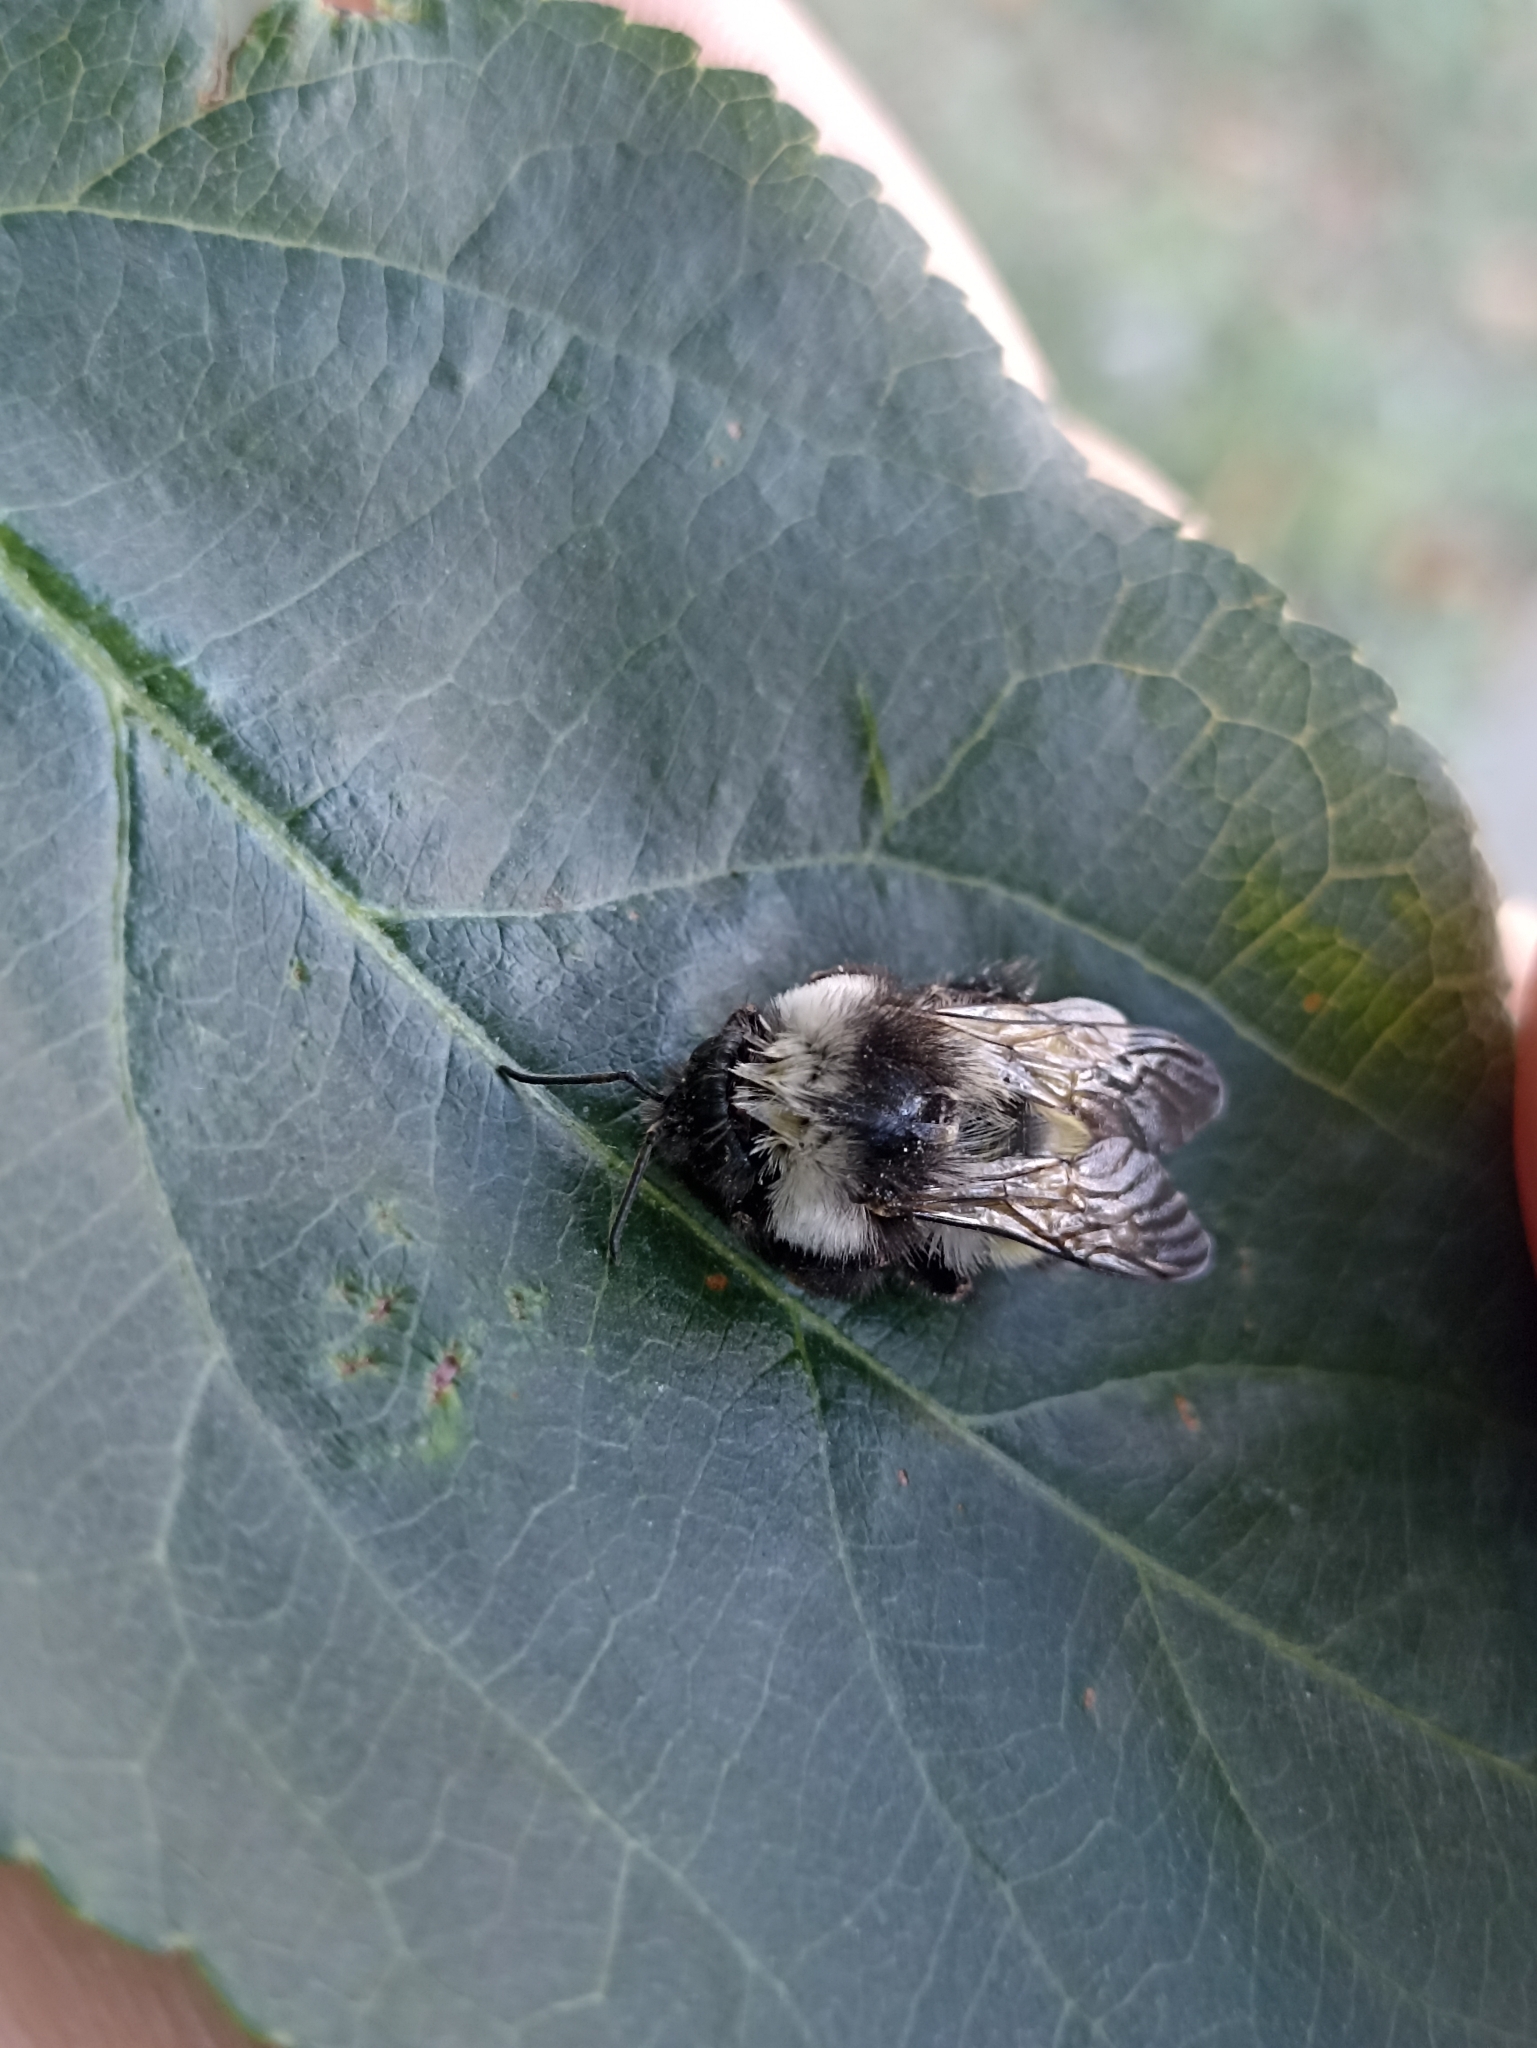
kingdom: Animalia
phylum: Arthropoda
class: Insecta
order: Hymenoptera
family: Apidae
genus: Bombus
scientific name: Bombus patagiatus
